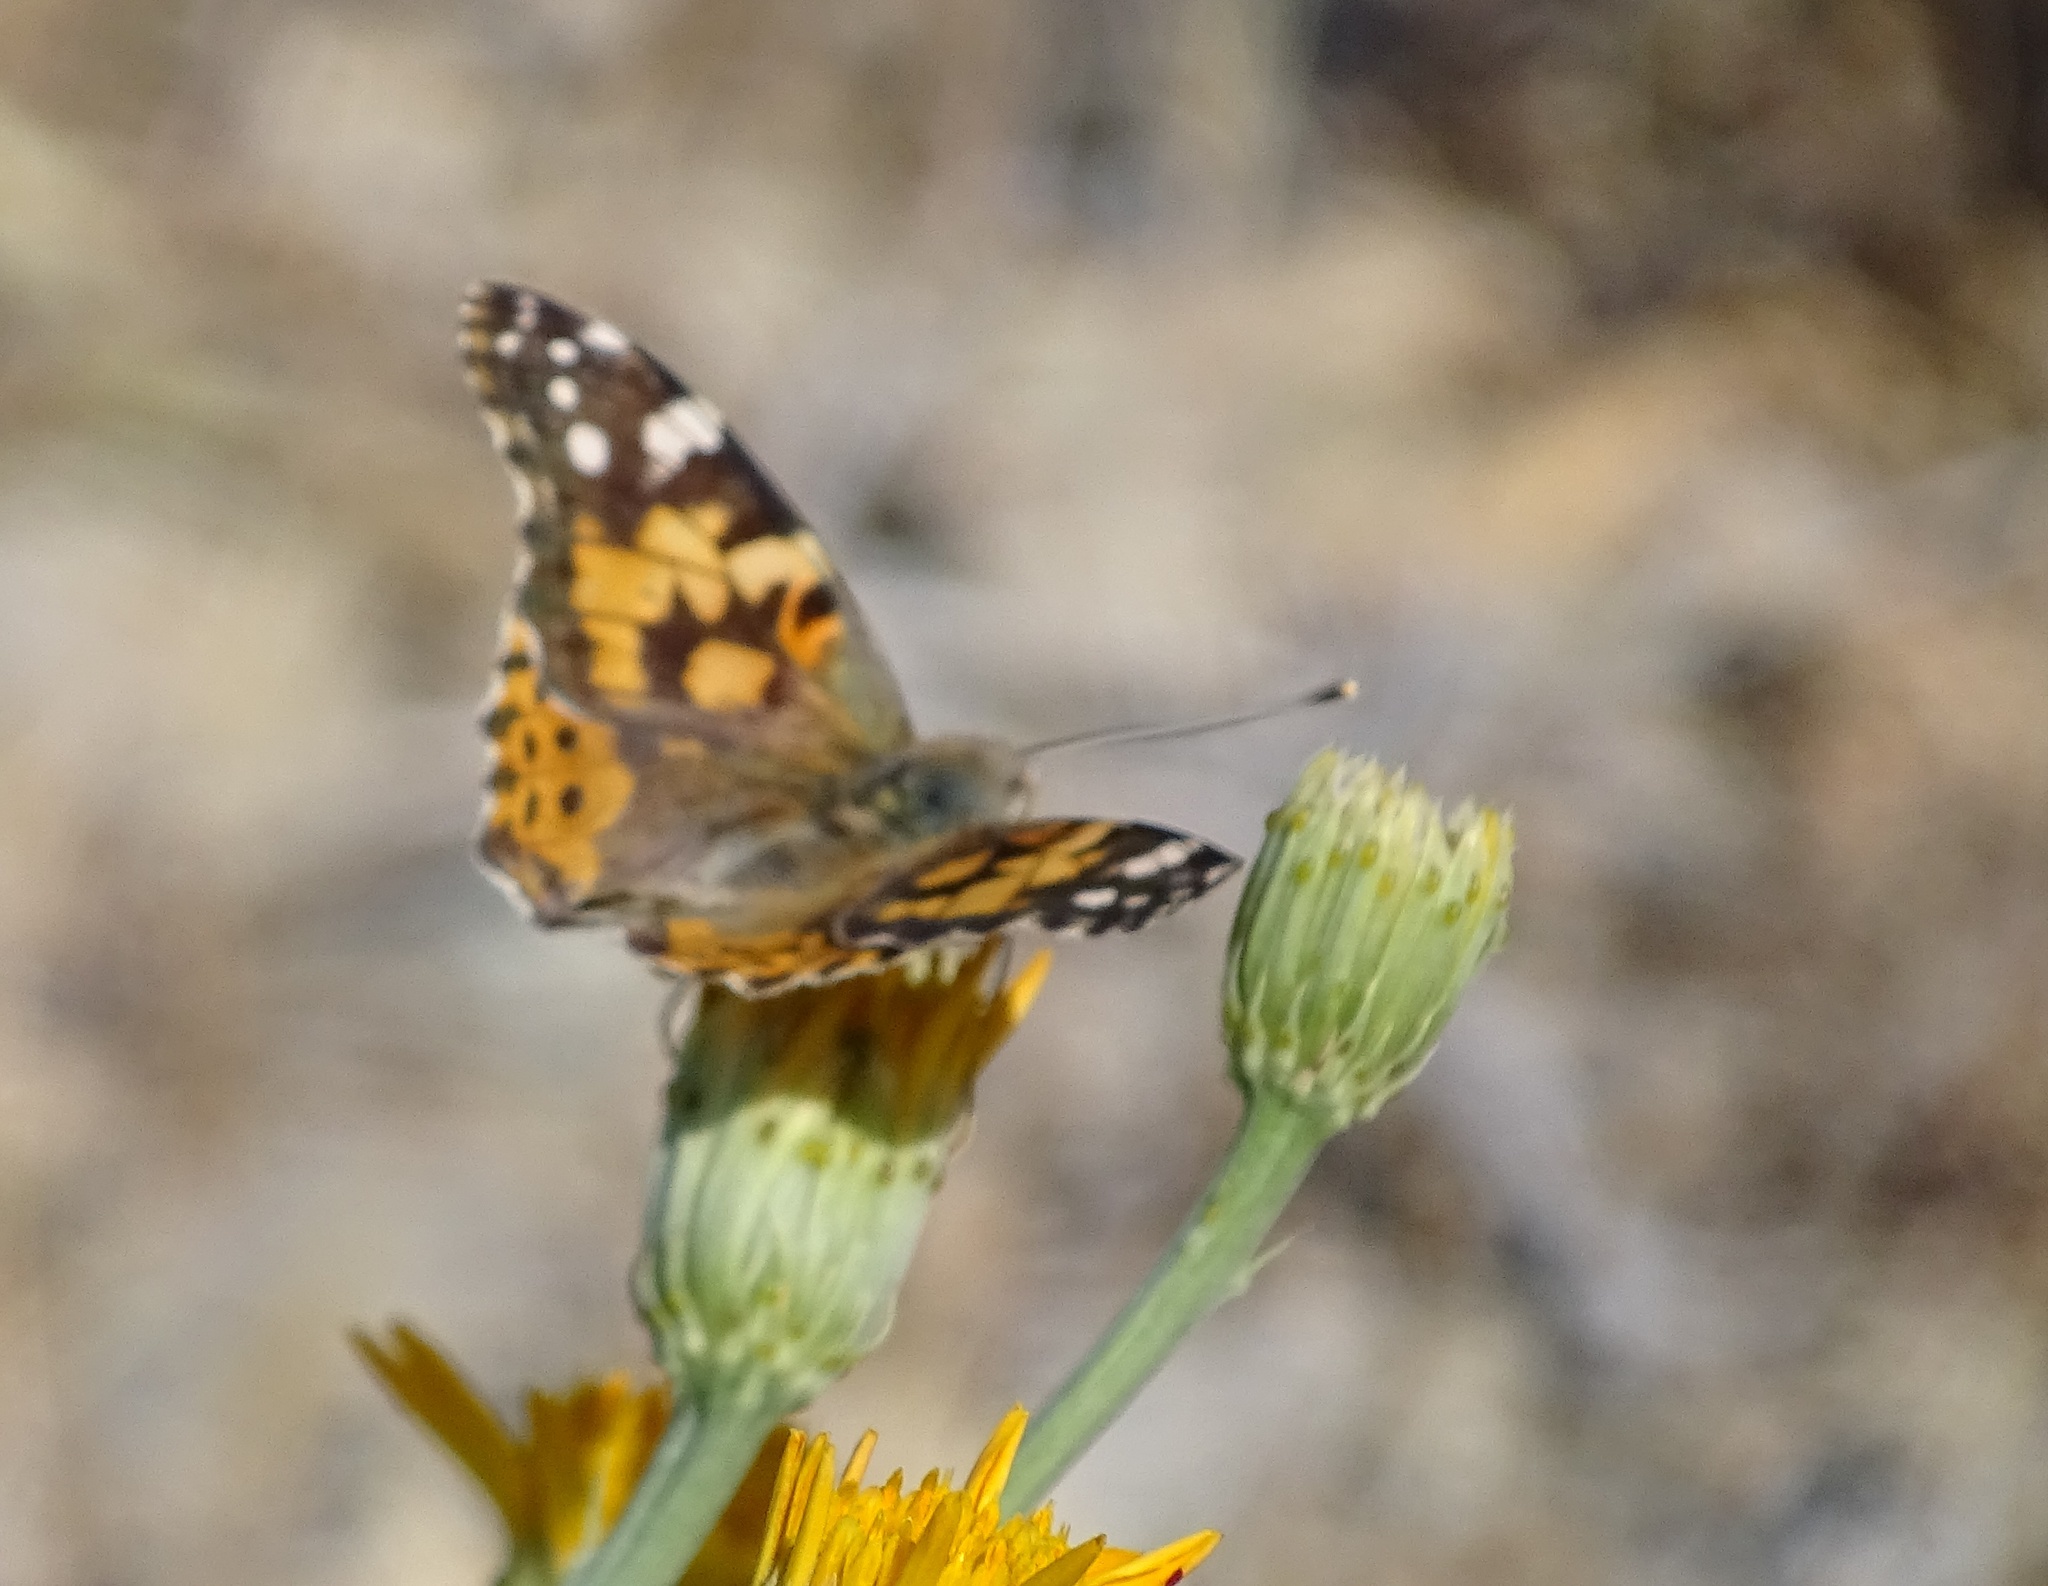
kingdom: Animalia
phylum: Arthropoda
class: Insecta
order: Lepidoptera
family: Nymphalidae
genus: Vanessa
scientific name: Vanessa cardui
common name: Painted lady
